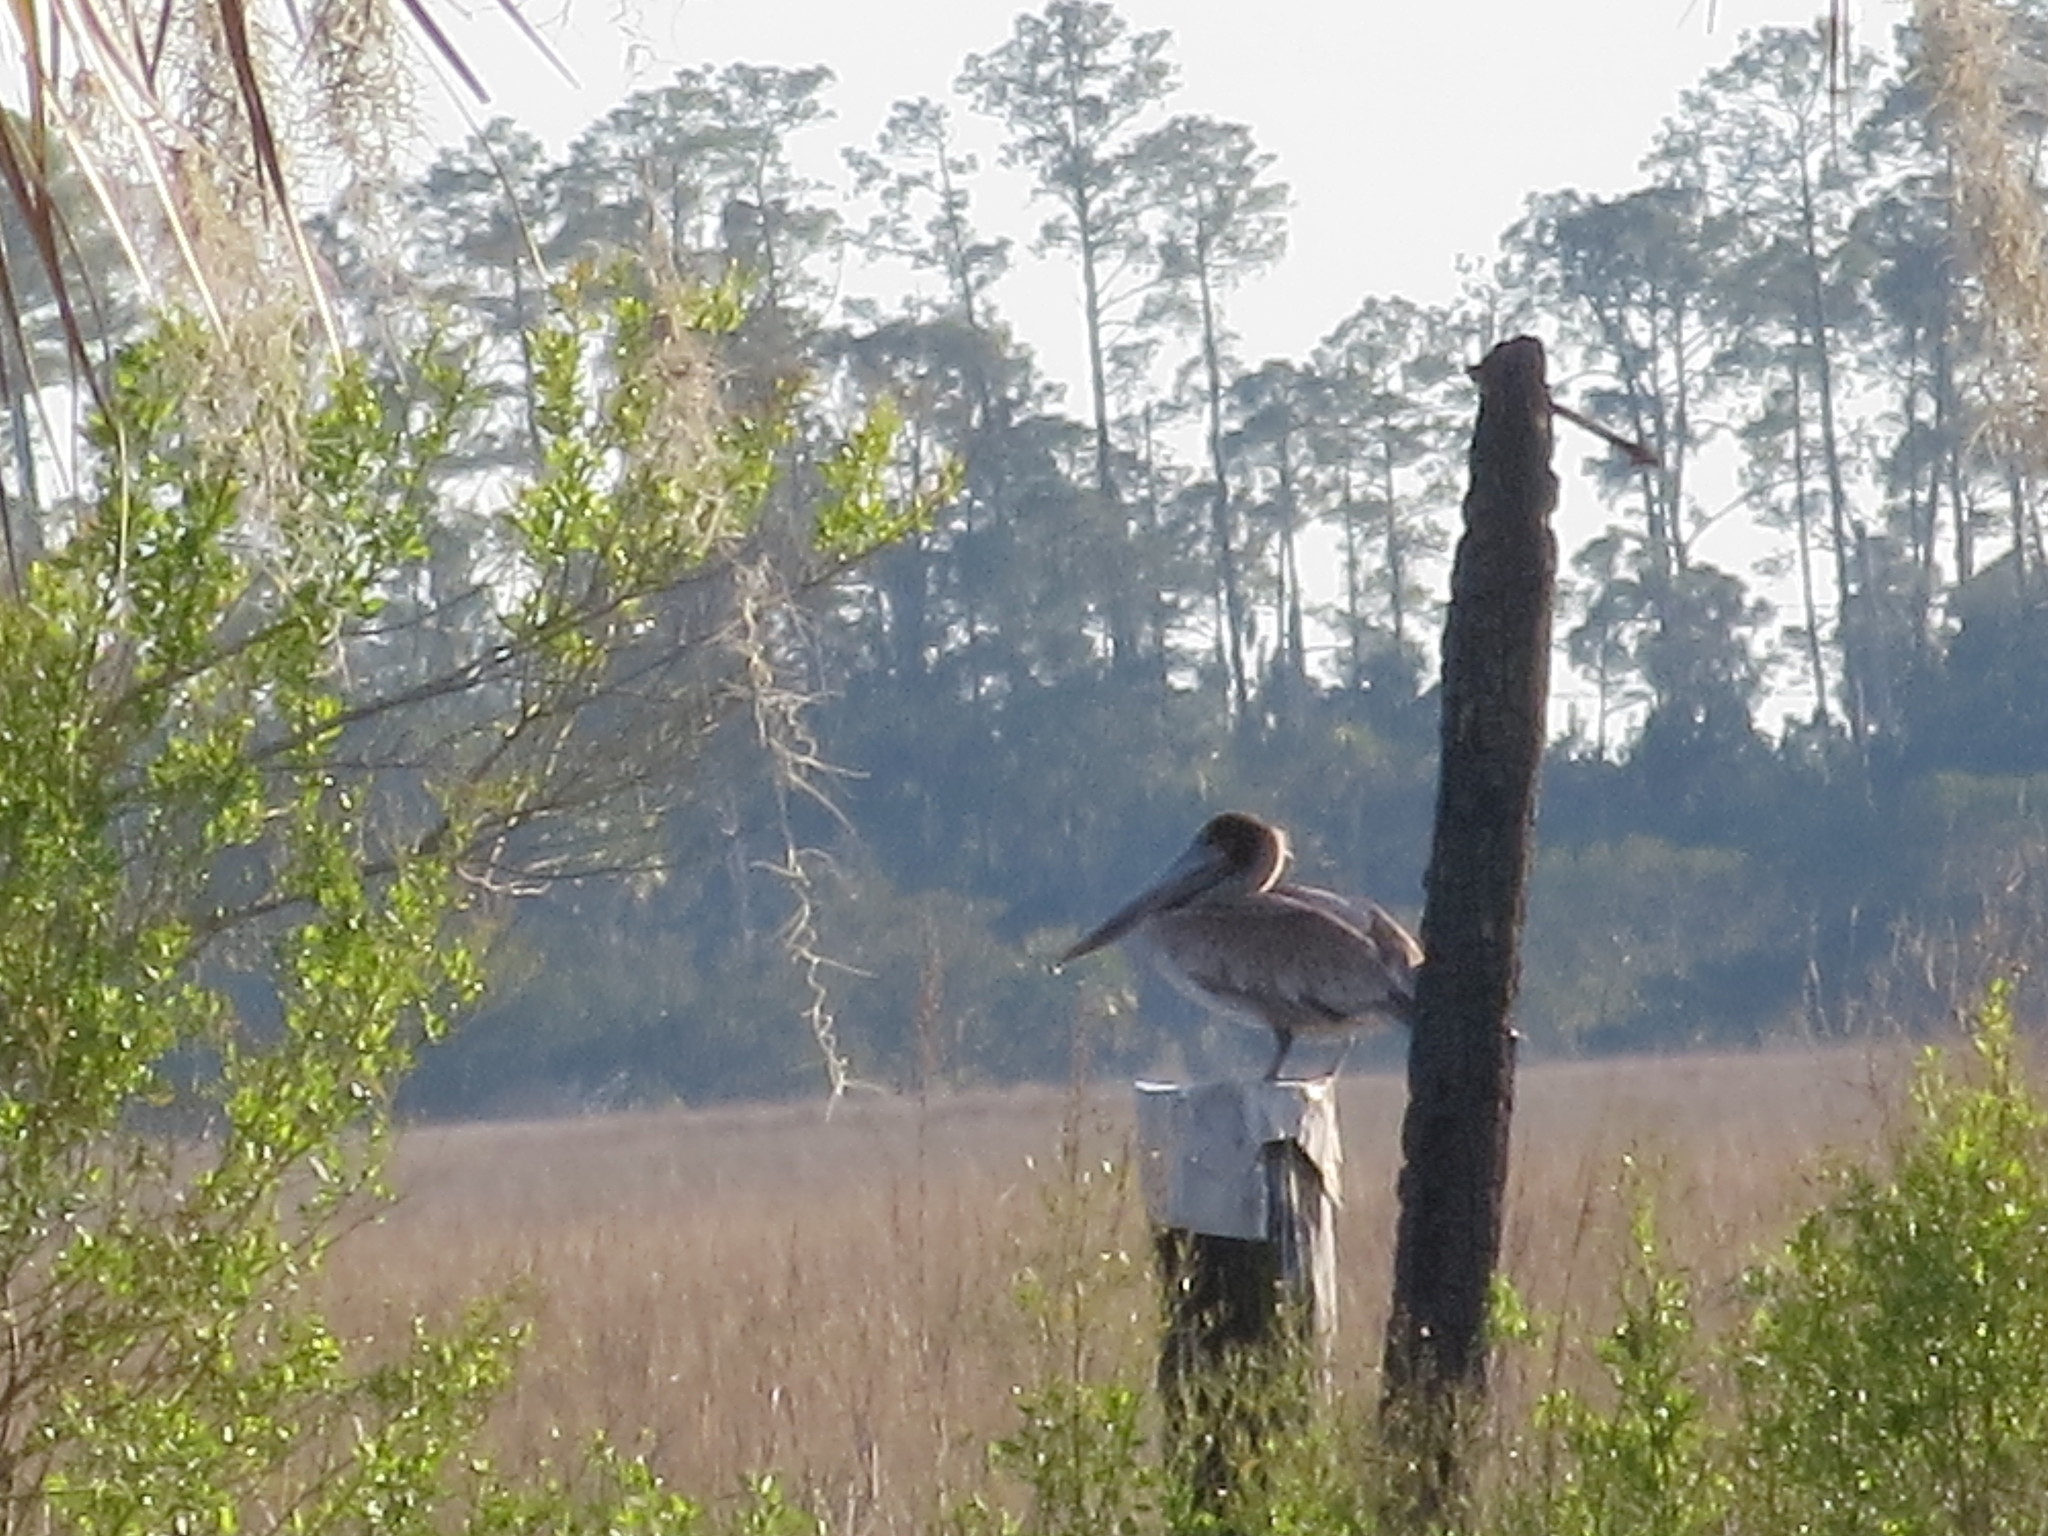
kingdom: Animalia
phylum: Chordata
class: Aves
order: Pelecaniformes
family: Pelecanidae
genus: Pelecanus
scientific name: Pelecanus occidentalis
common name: Brown pelican
